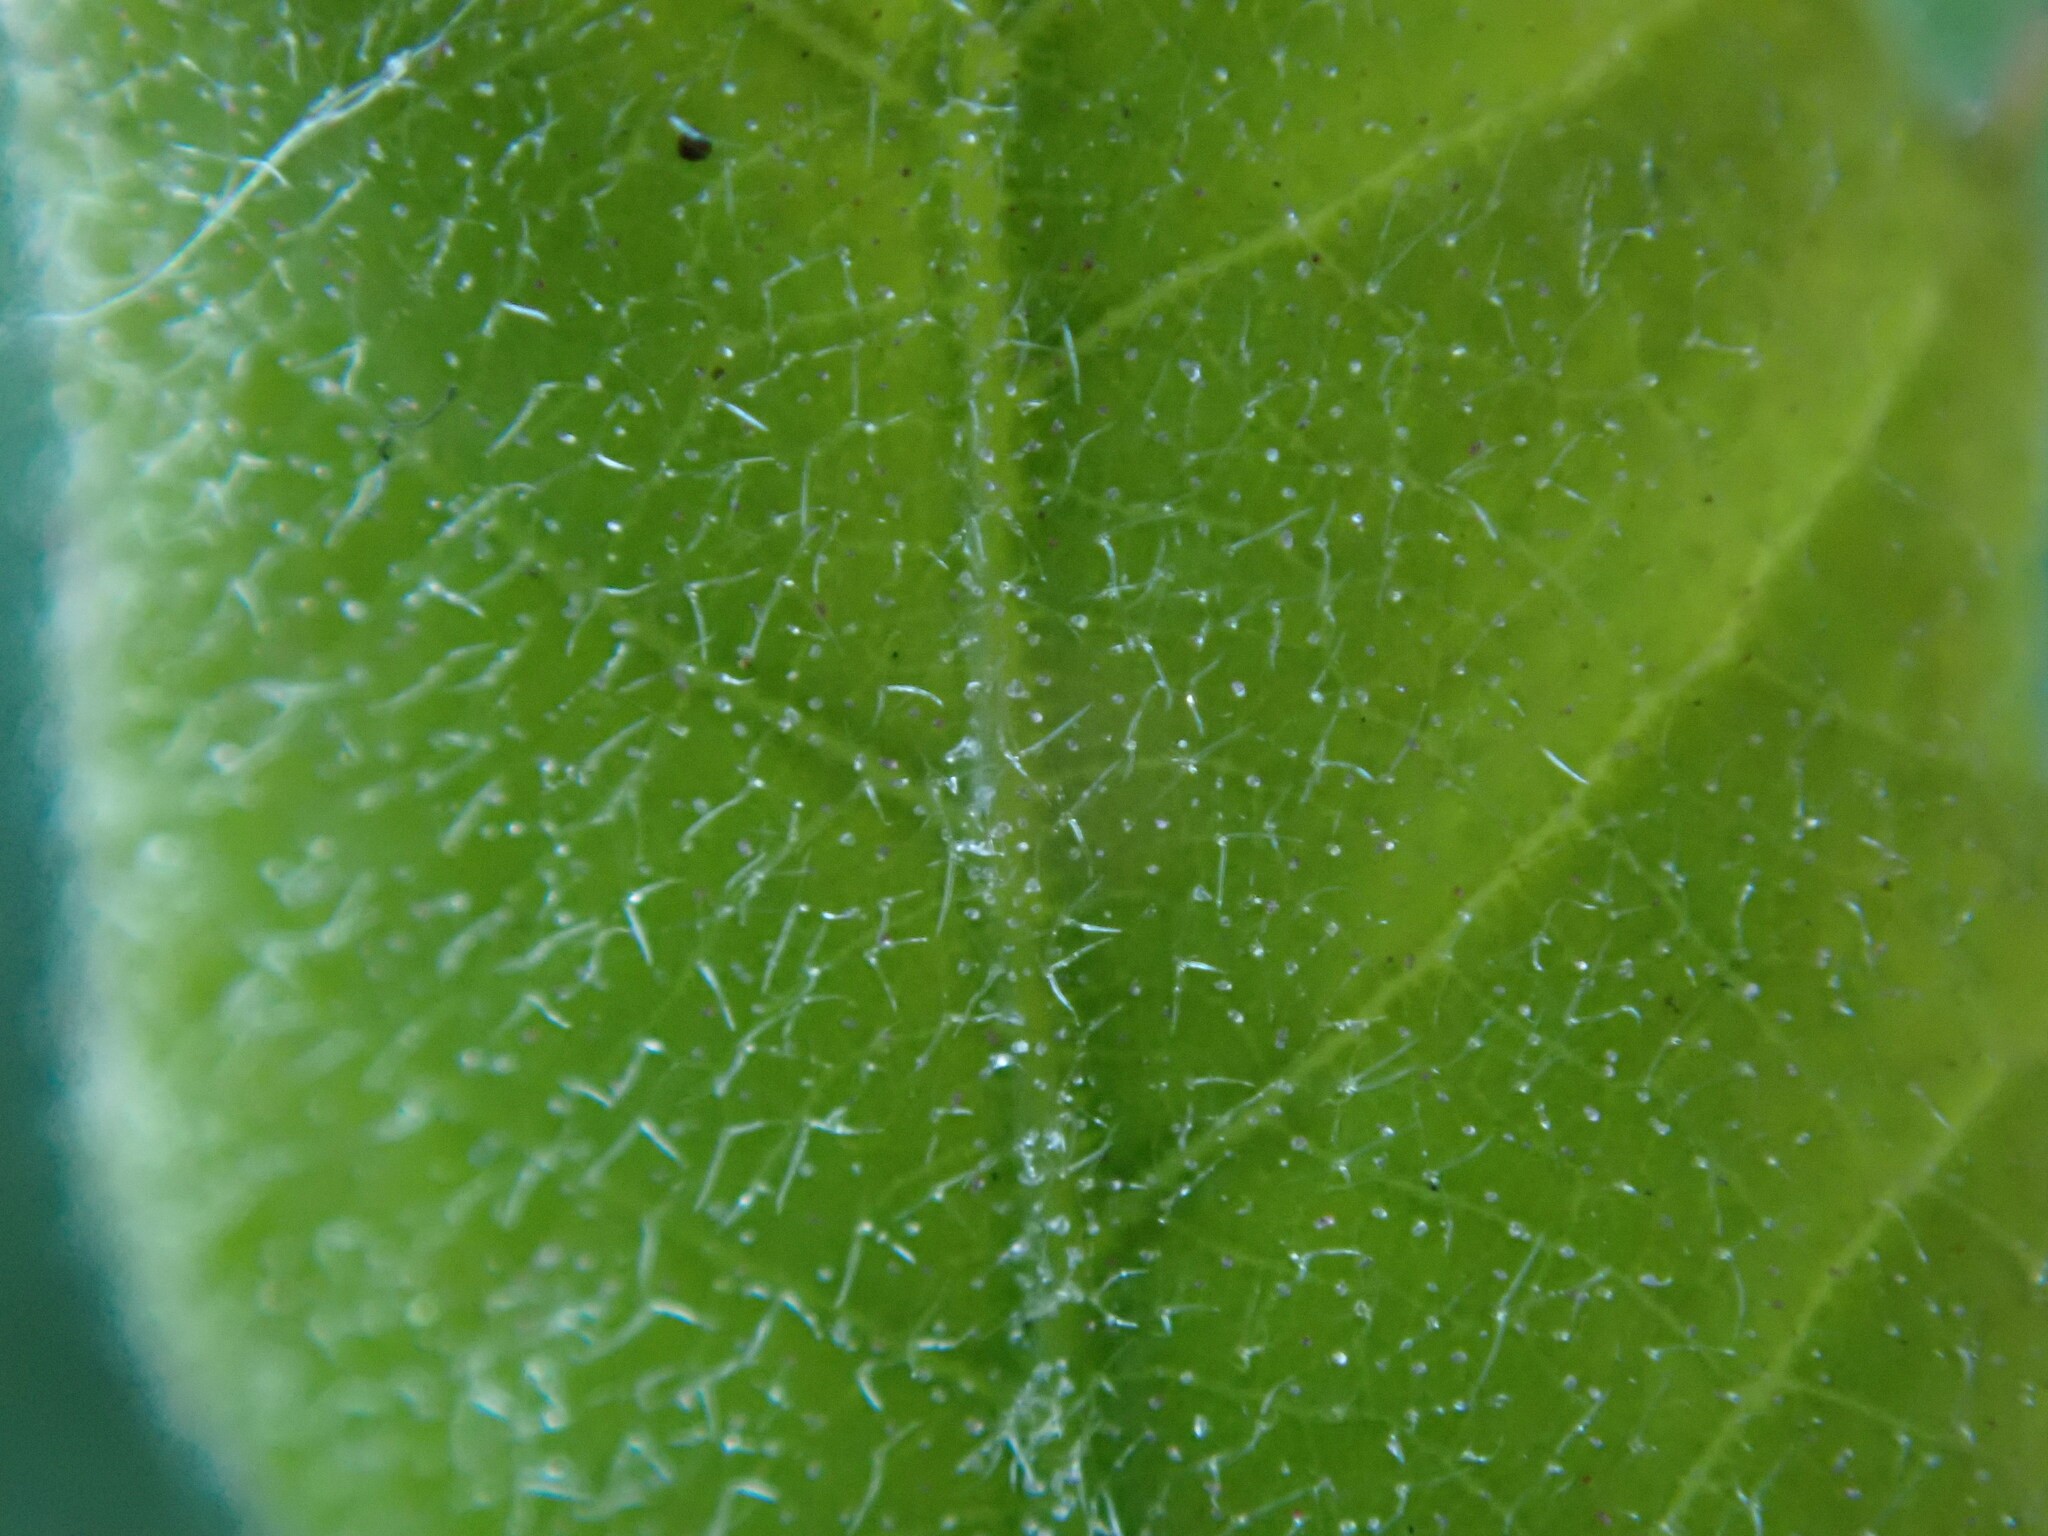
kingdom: Plantae
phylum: Tracheophyta
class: Magnoliopsida
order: Fagales
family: Fagaceae
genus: Quercus
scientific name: Quercus ilex
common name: Evergreen oak
